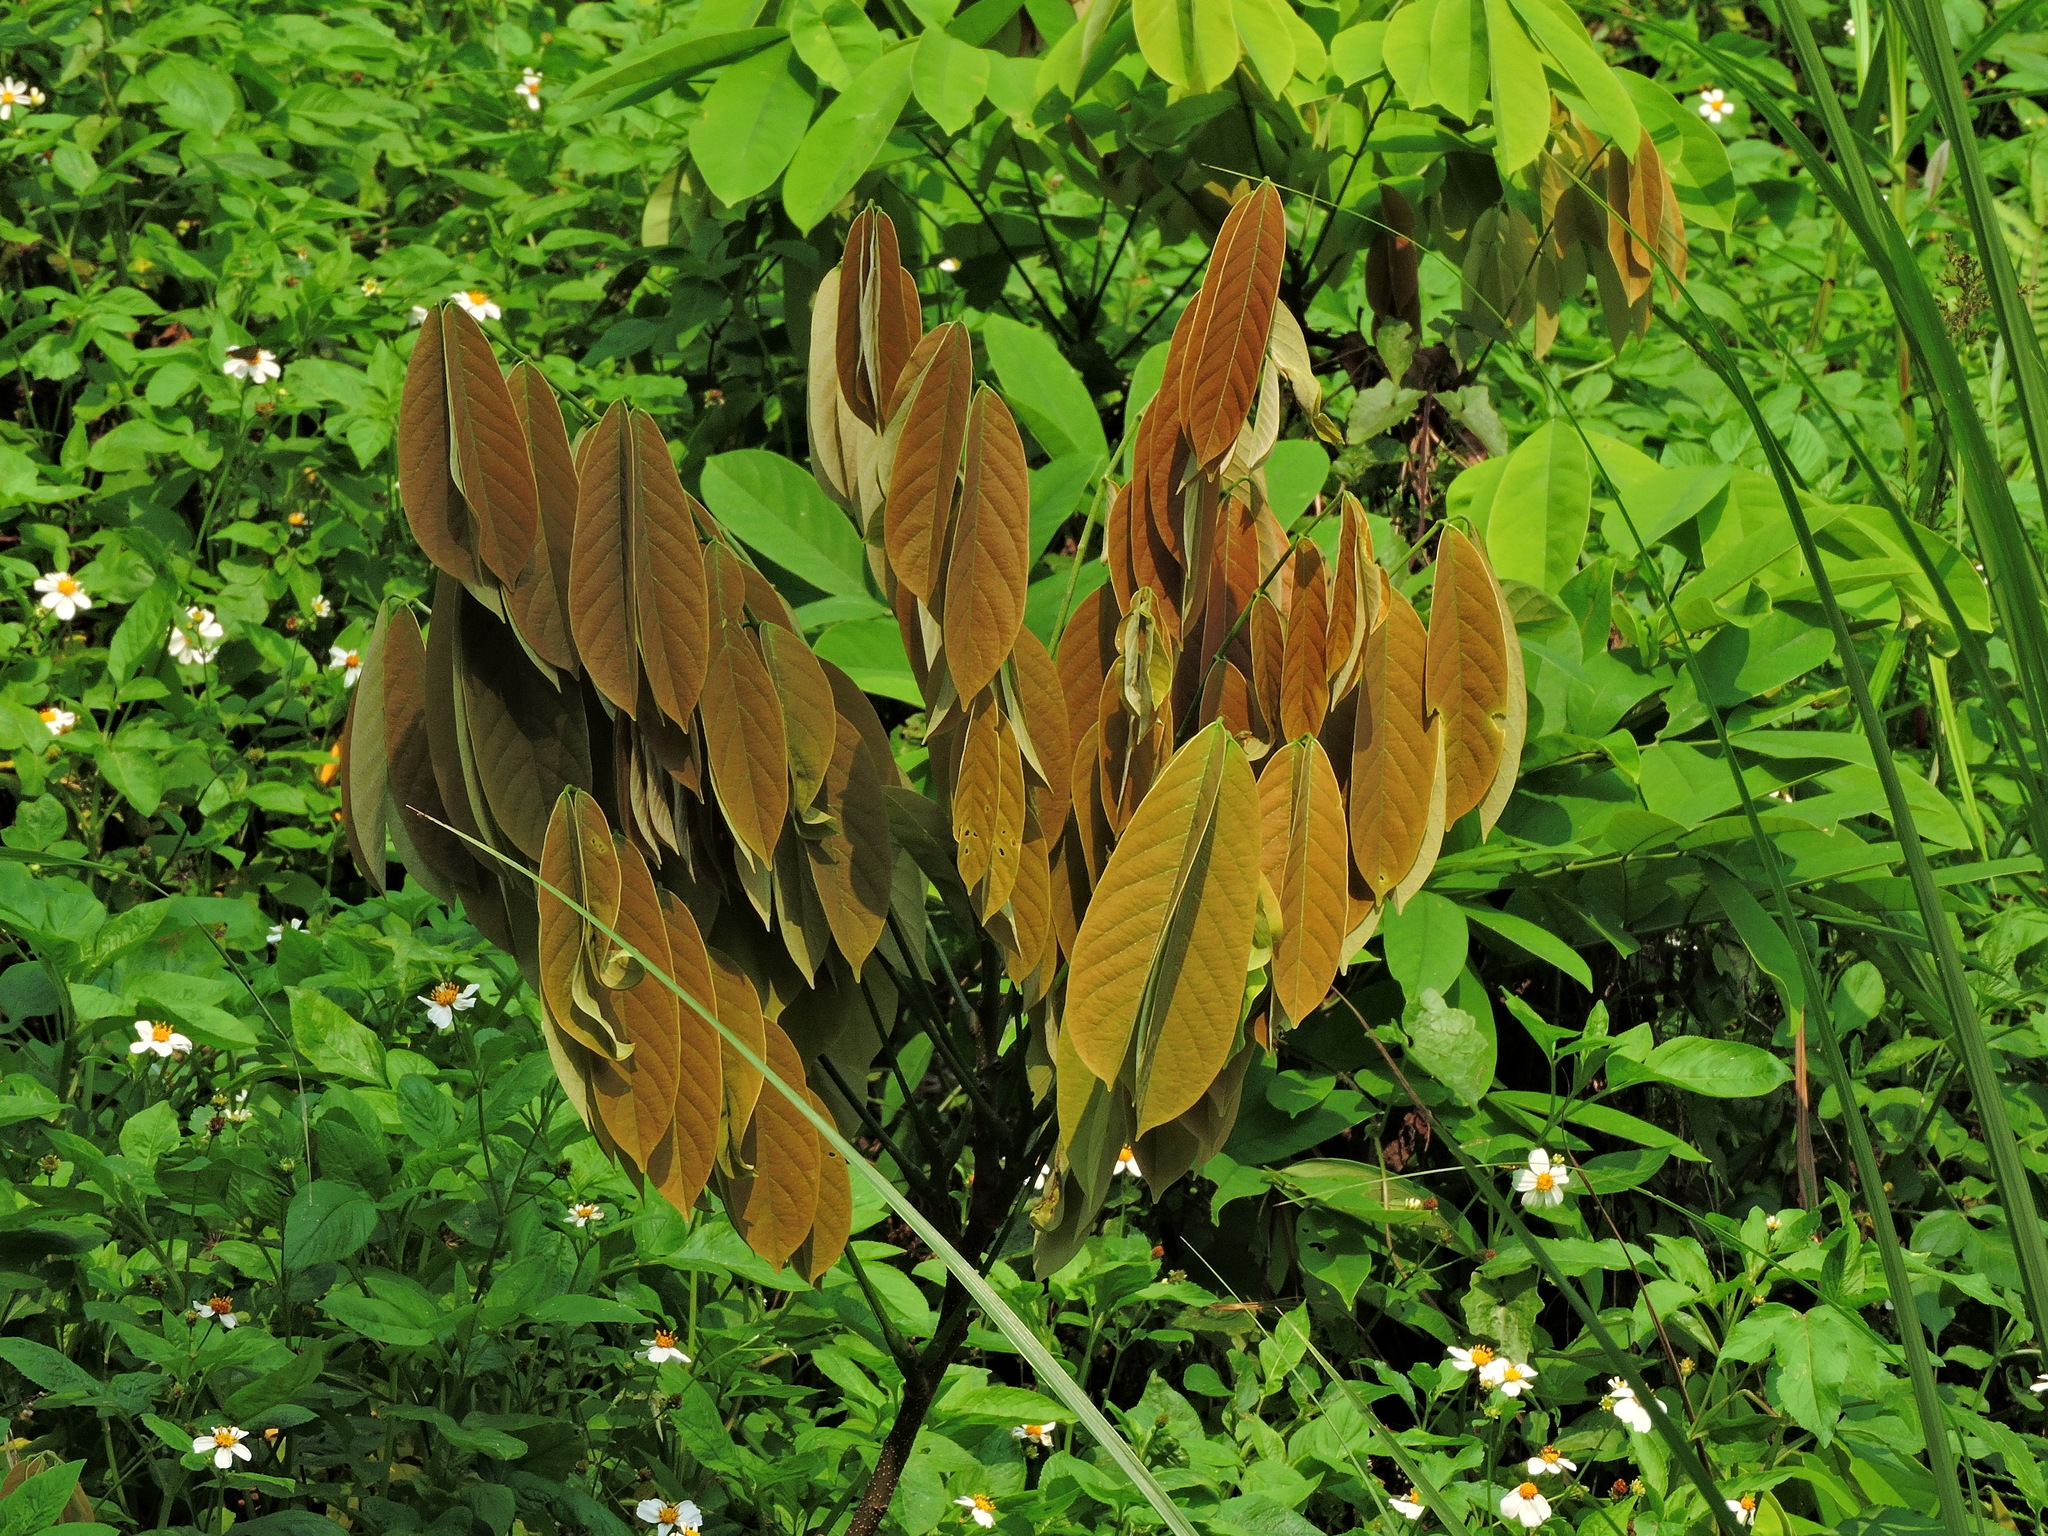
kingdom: Plantae
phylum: Tracheophyta
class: Magnoliopsida
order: Fabales
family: Fabaceae
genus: Millettia
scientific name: Millettia pachycarpa
